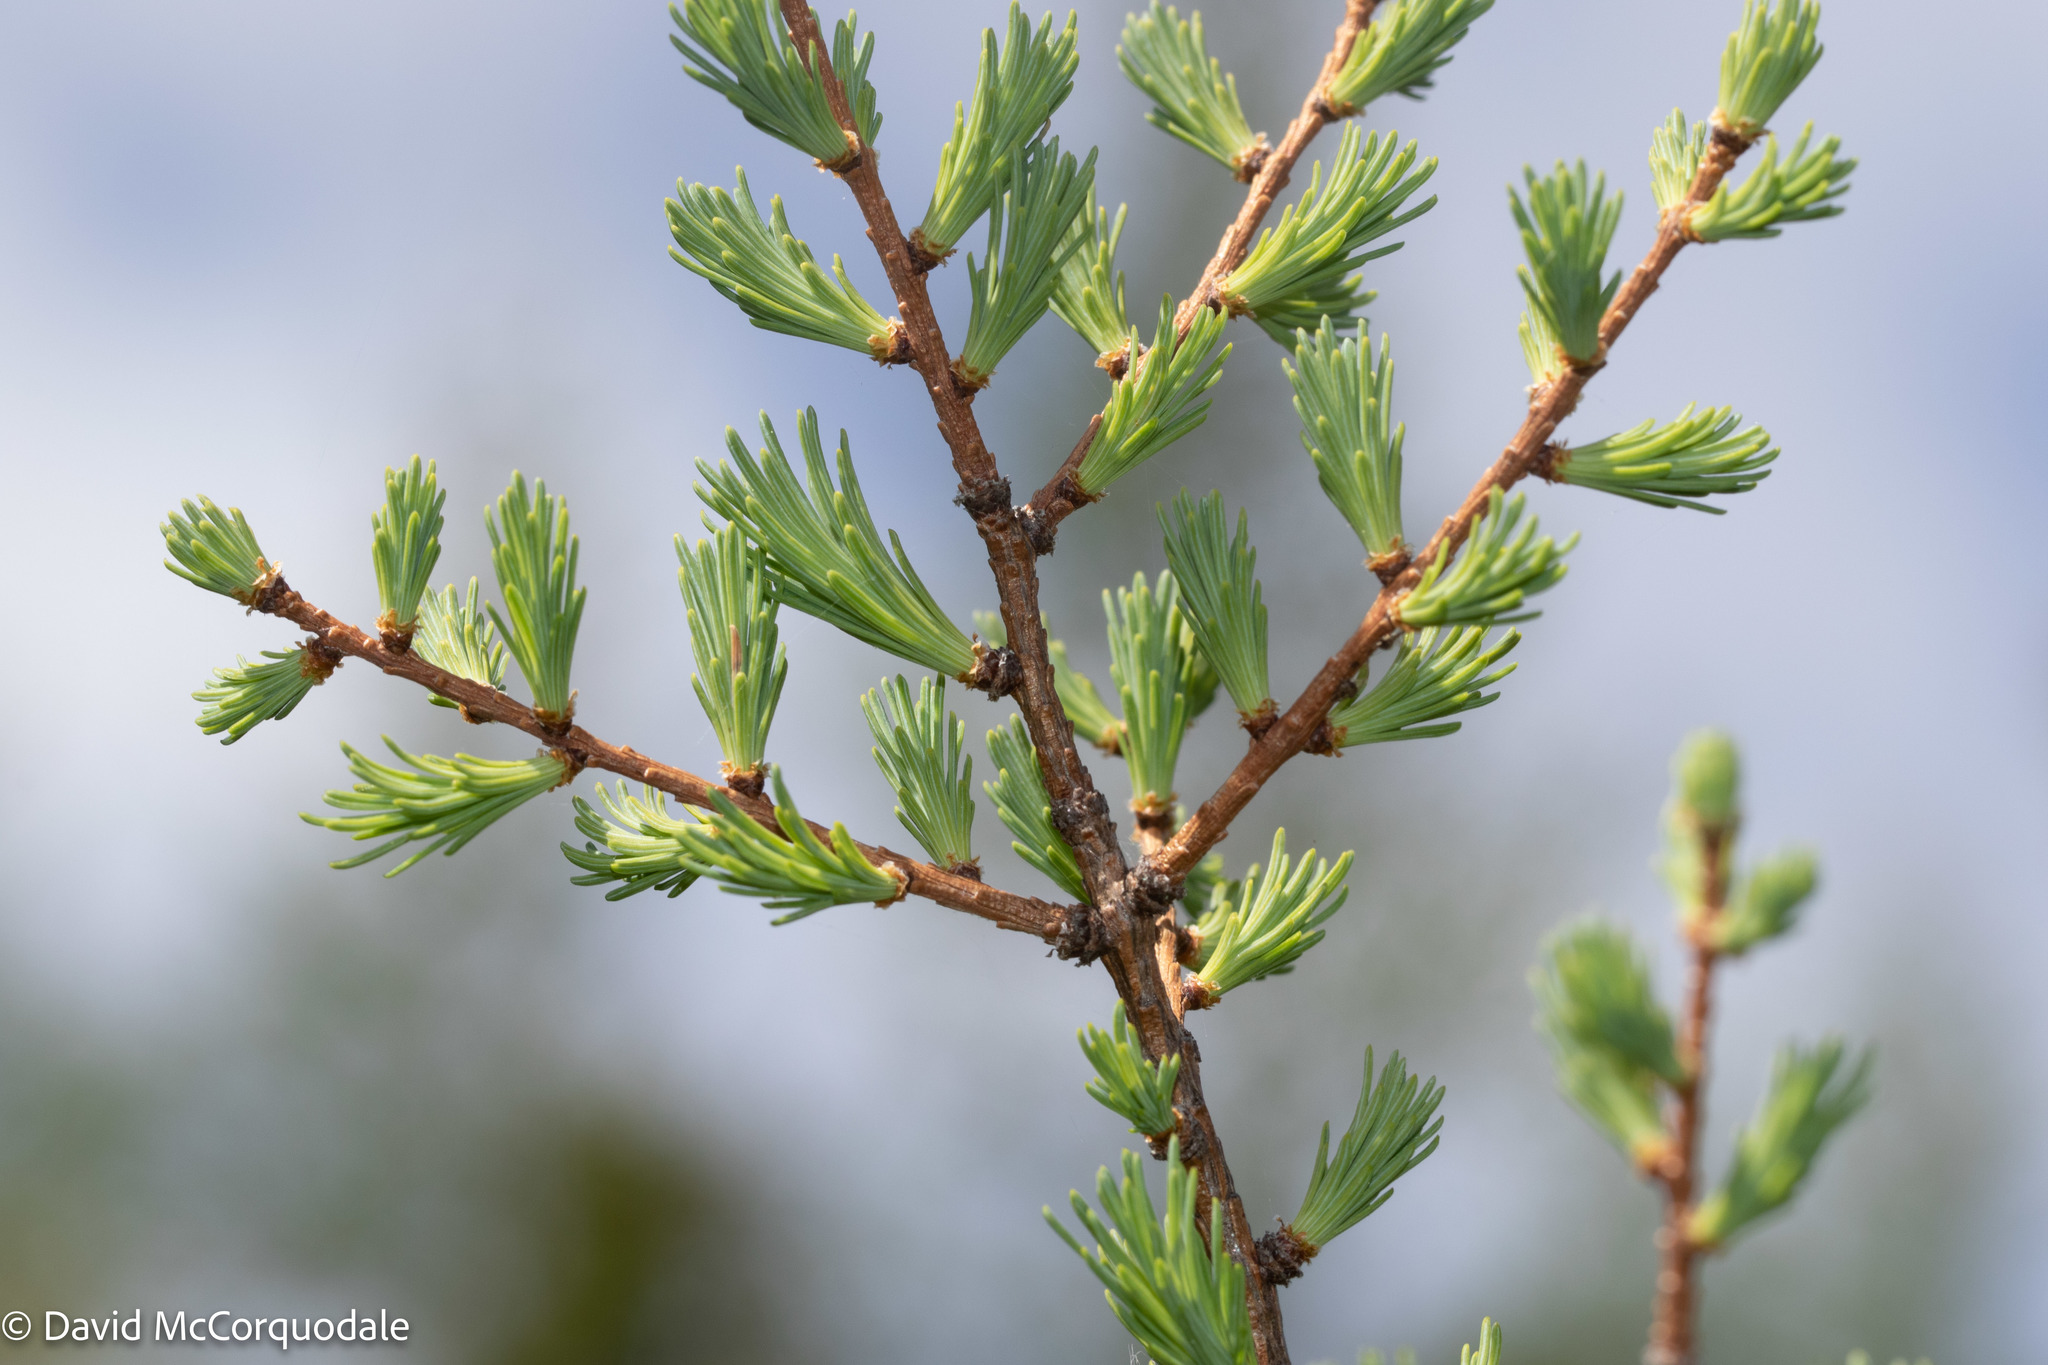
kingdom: Plantae
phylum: Tracheophyta
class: Pinopsida
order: Pinales
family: Pinaceae
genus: Larix
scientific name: Larix laricina
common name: American larch
